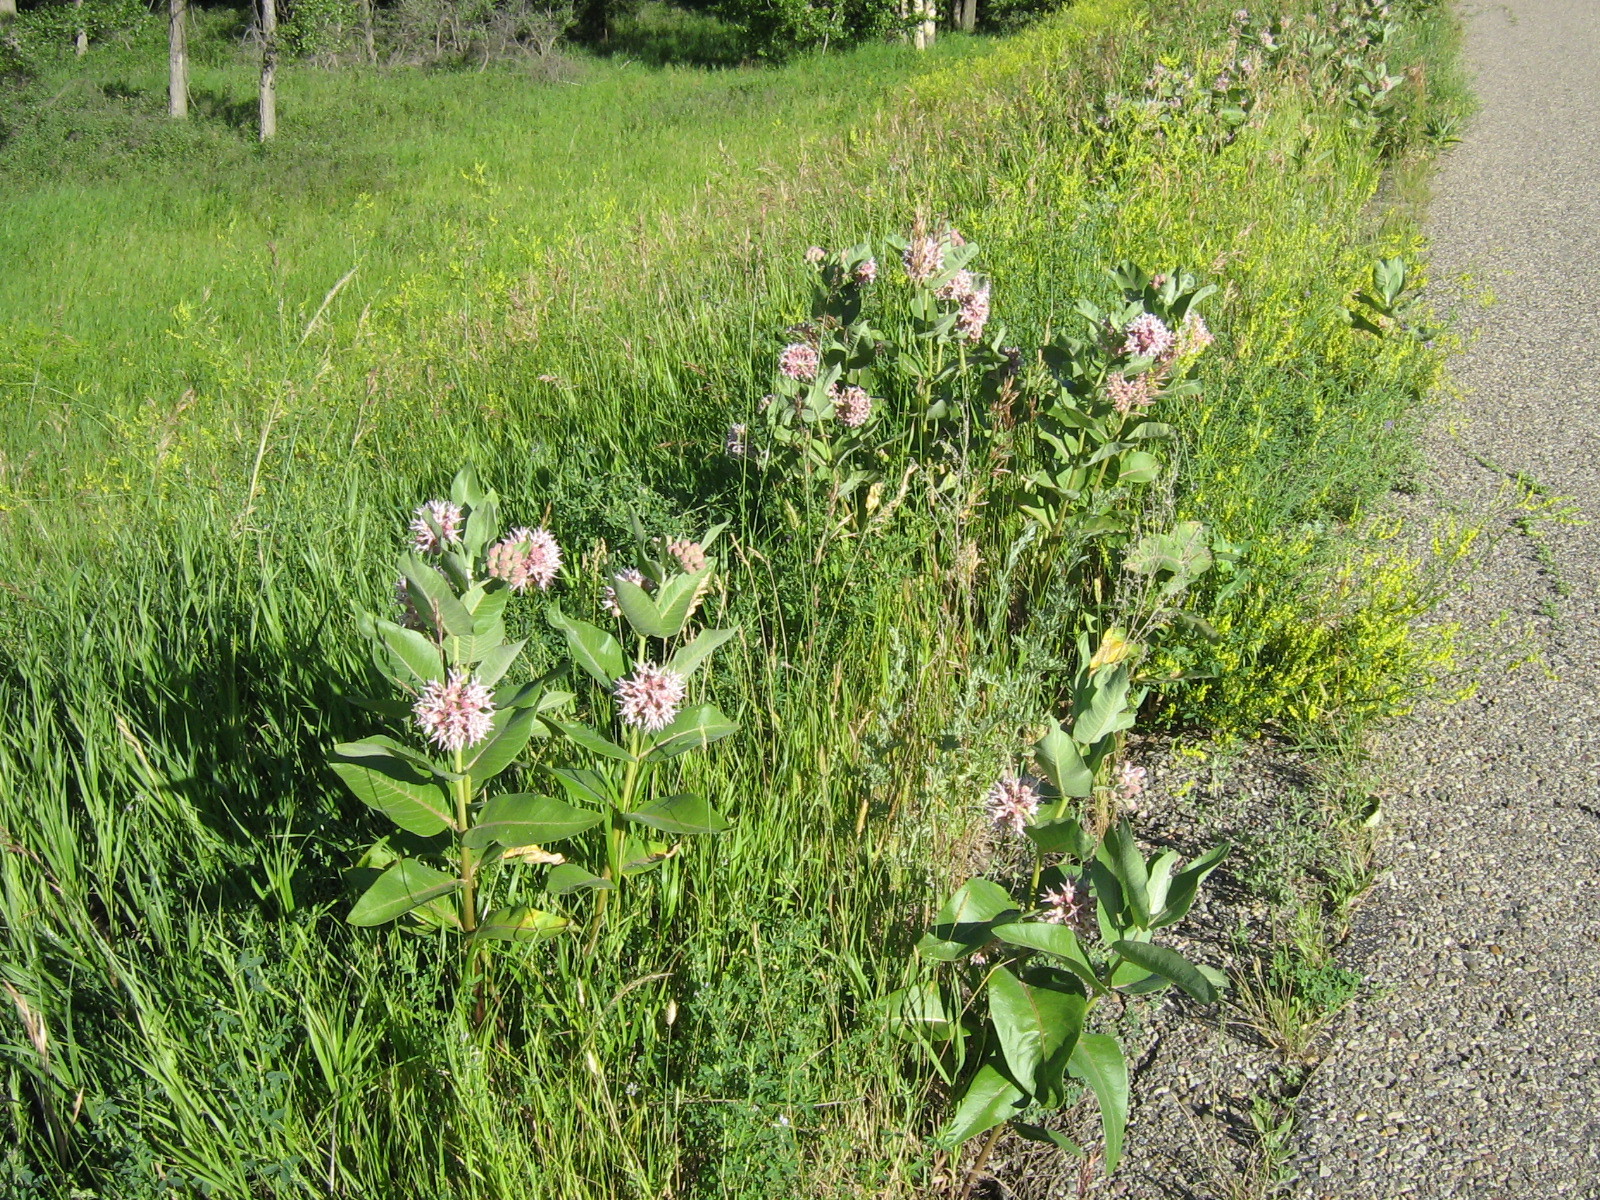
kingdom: Plantae
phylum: Tracheophyta
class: Magnoliopsida
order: Gentianales
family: Apocynaceae
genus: Asclepias
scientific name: Asclepias speciosa
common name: Showy milkweed
